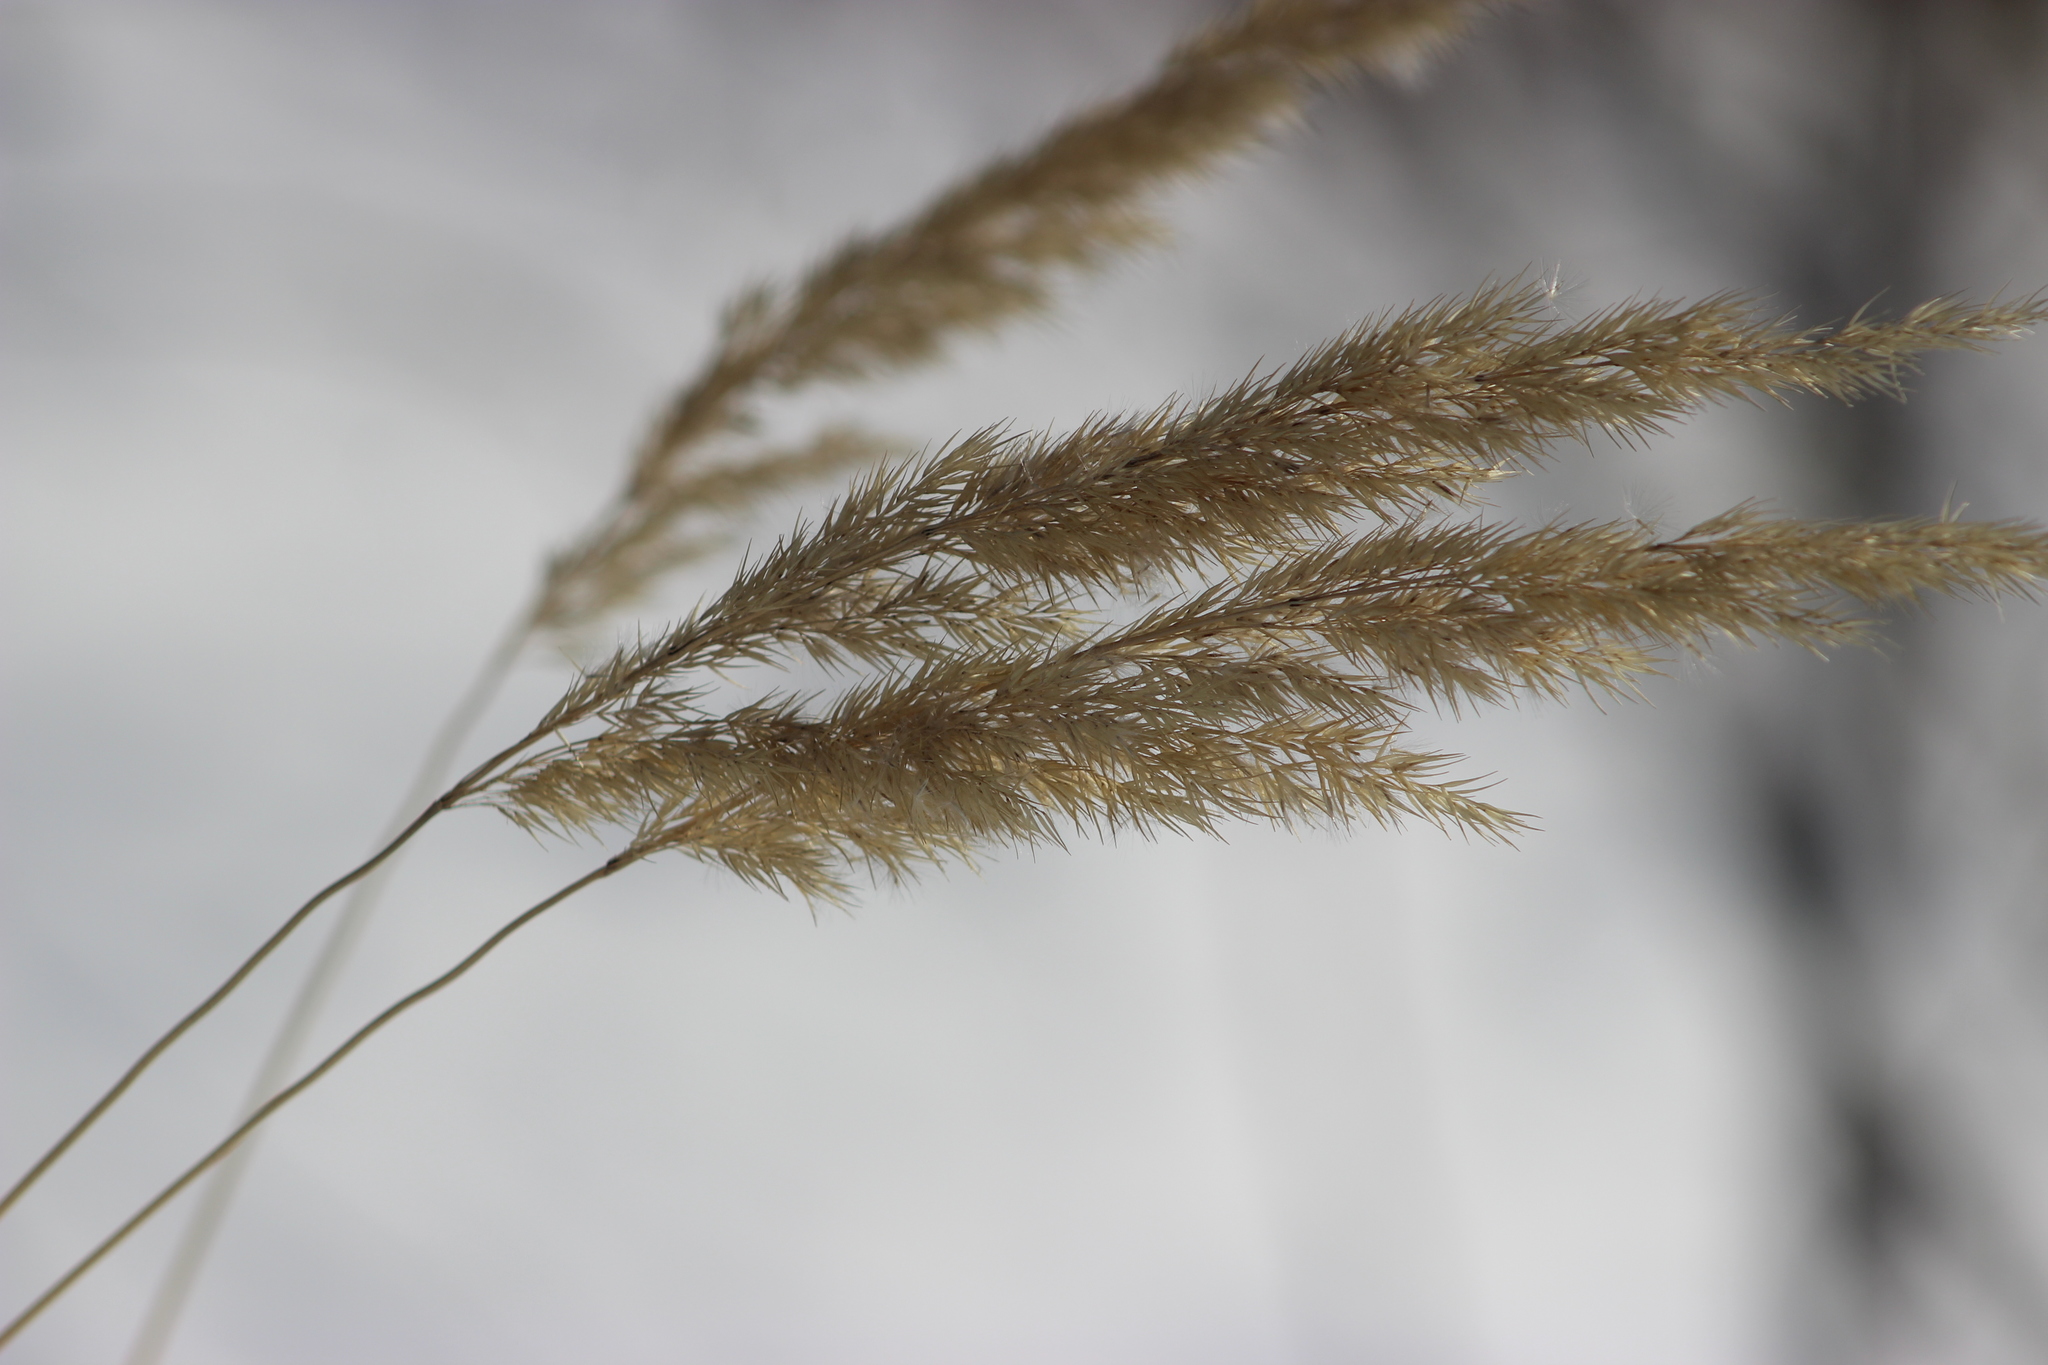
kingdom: Plantae
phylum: Tracheophyta
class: Liliopsida
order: Poales
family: Poaceae
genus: Calamagrostis
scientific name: Calamagrostis epigejos
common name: Wood small-reed
